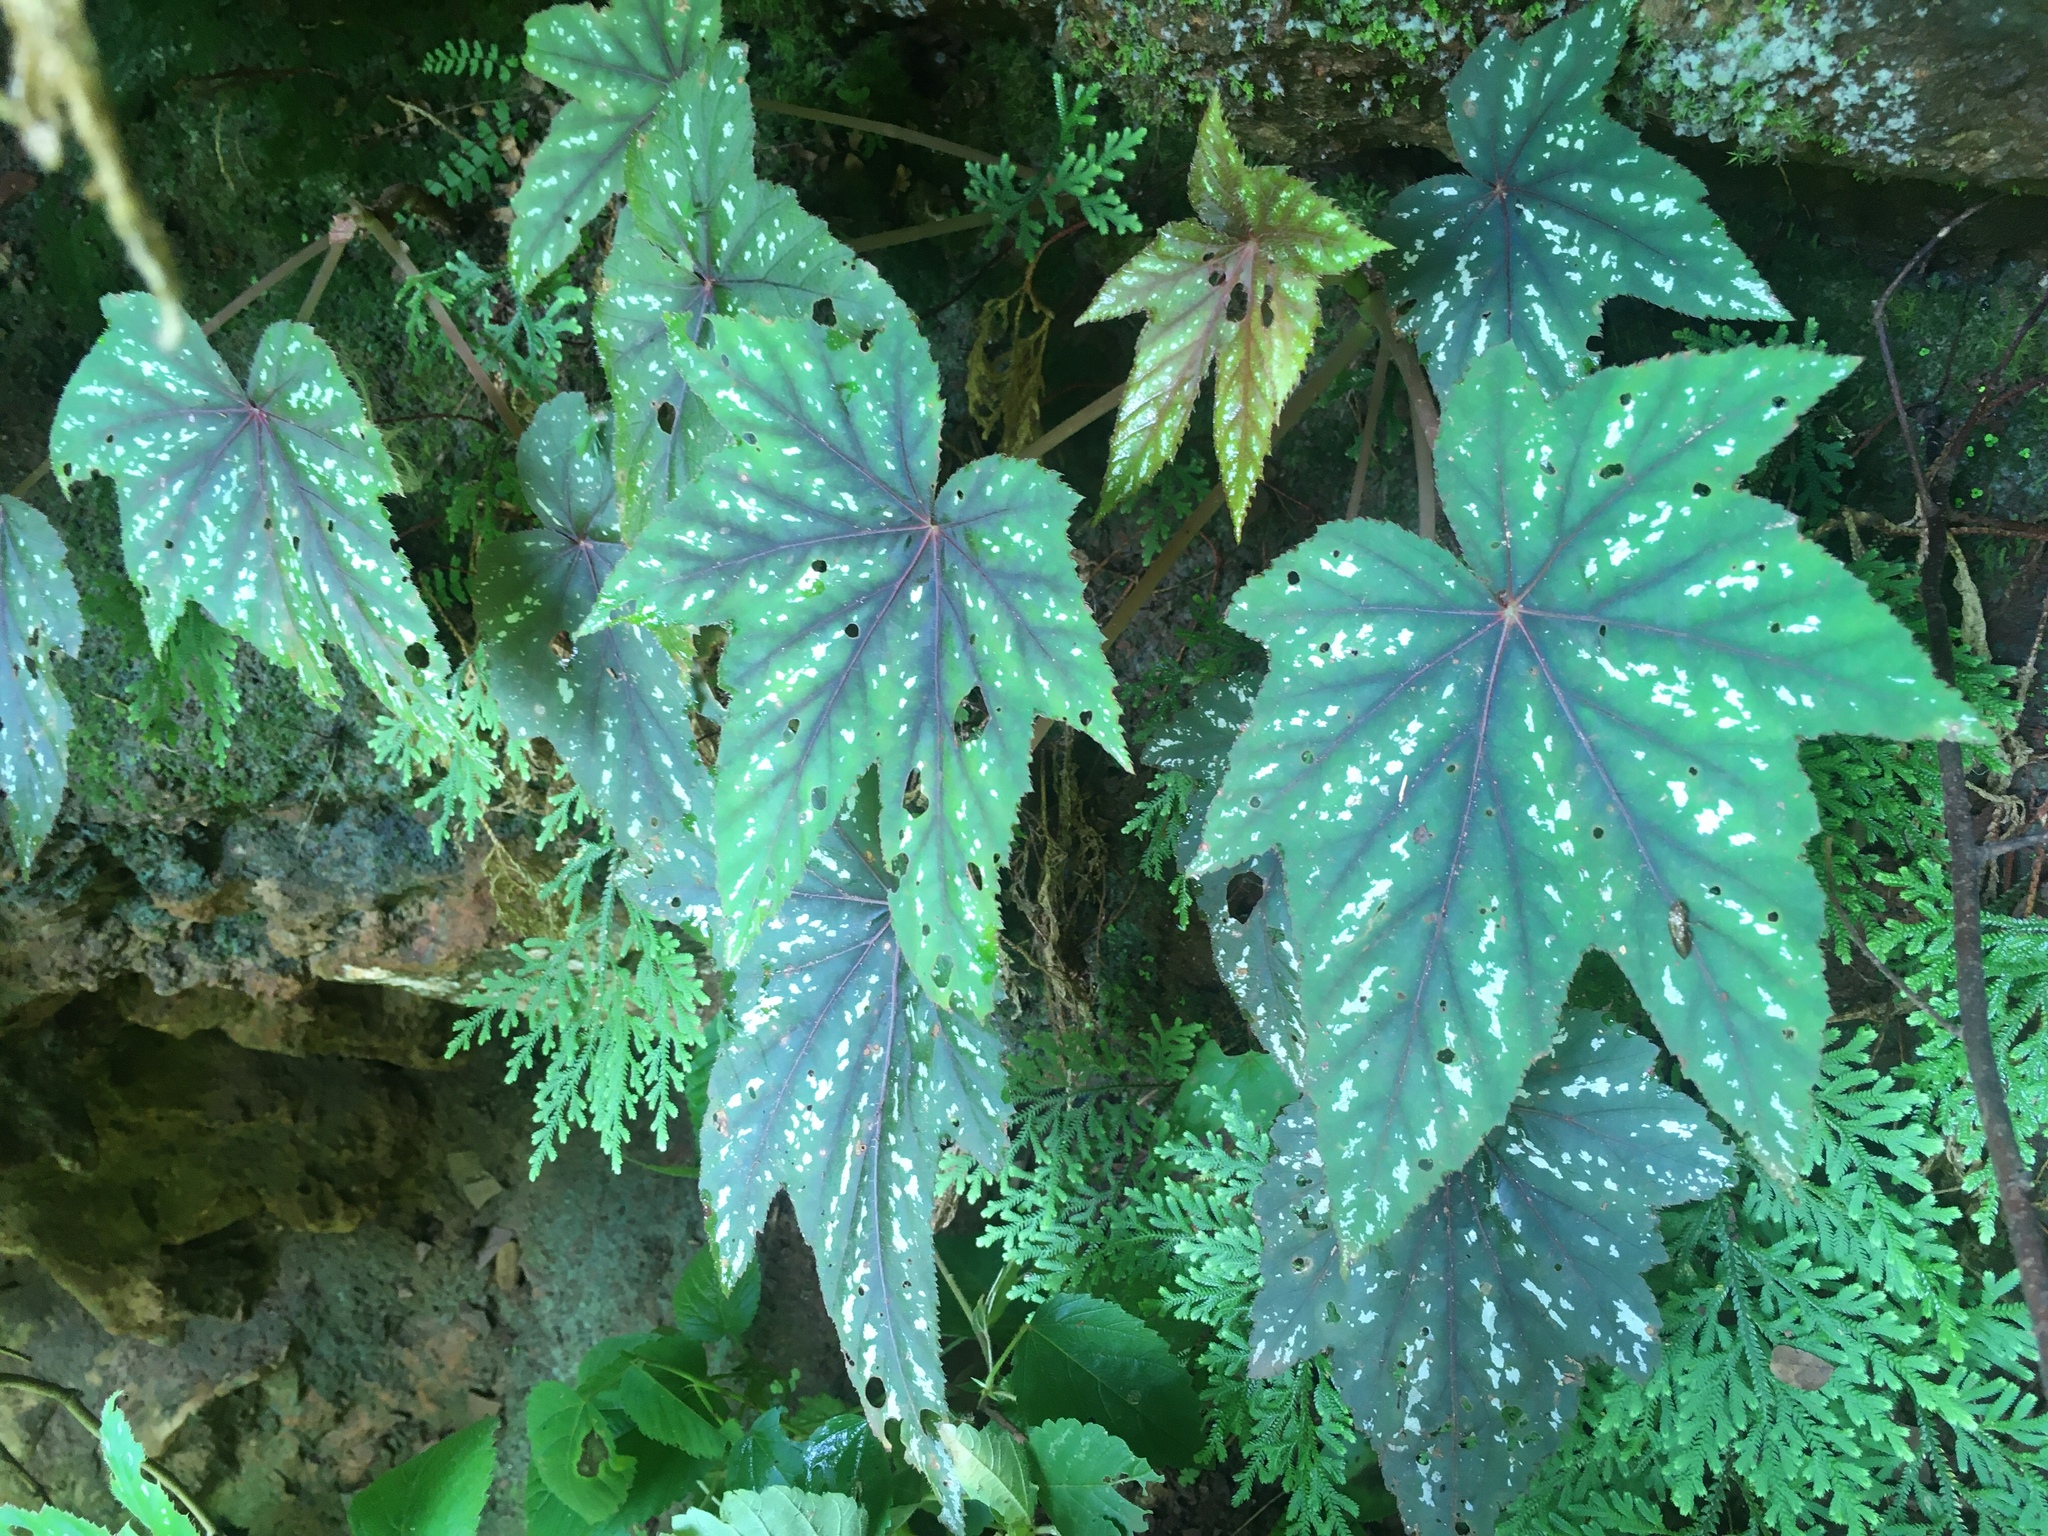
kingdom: Plantae
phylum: Tracheophyta
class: Magnoliopsida
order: Cucurbitales
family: Begoniaceae
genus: Begonia
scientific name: Begonia wollnyi
